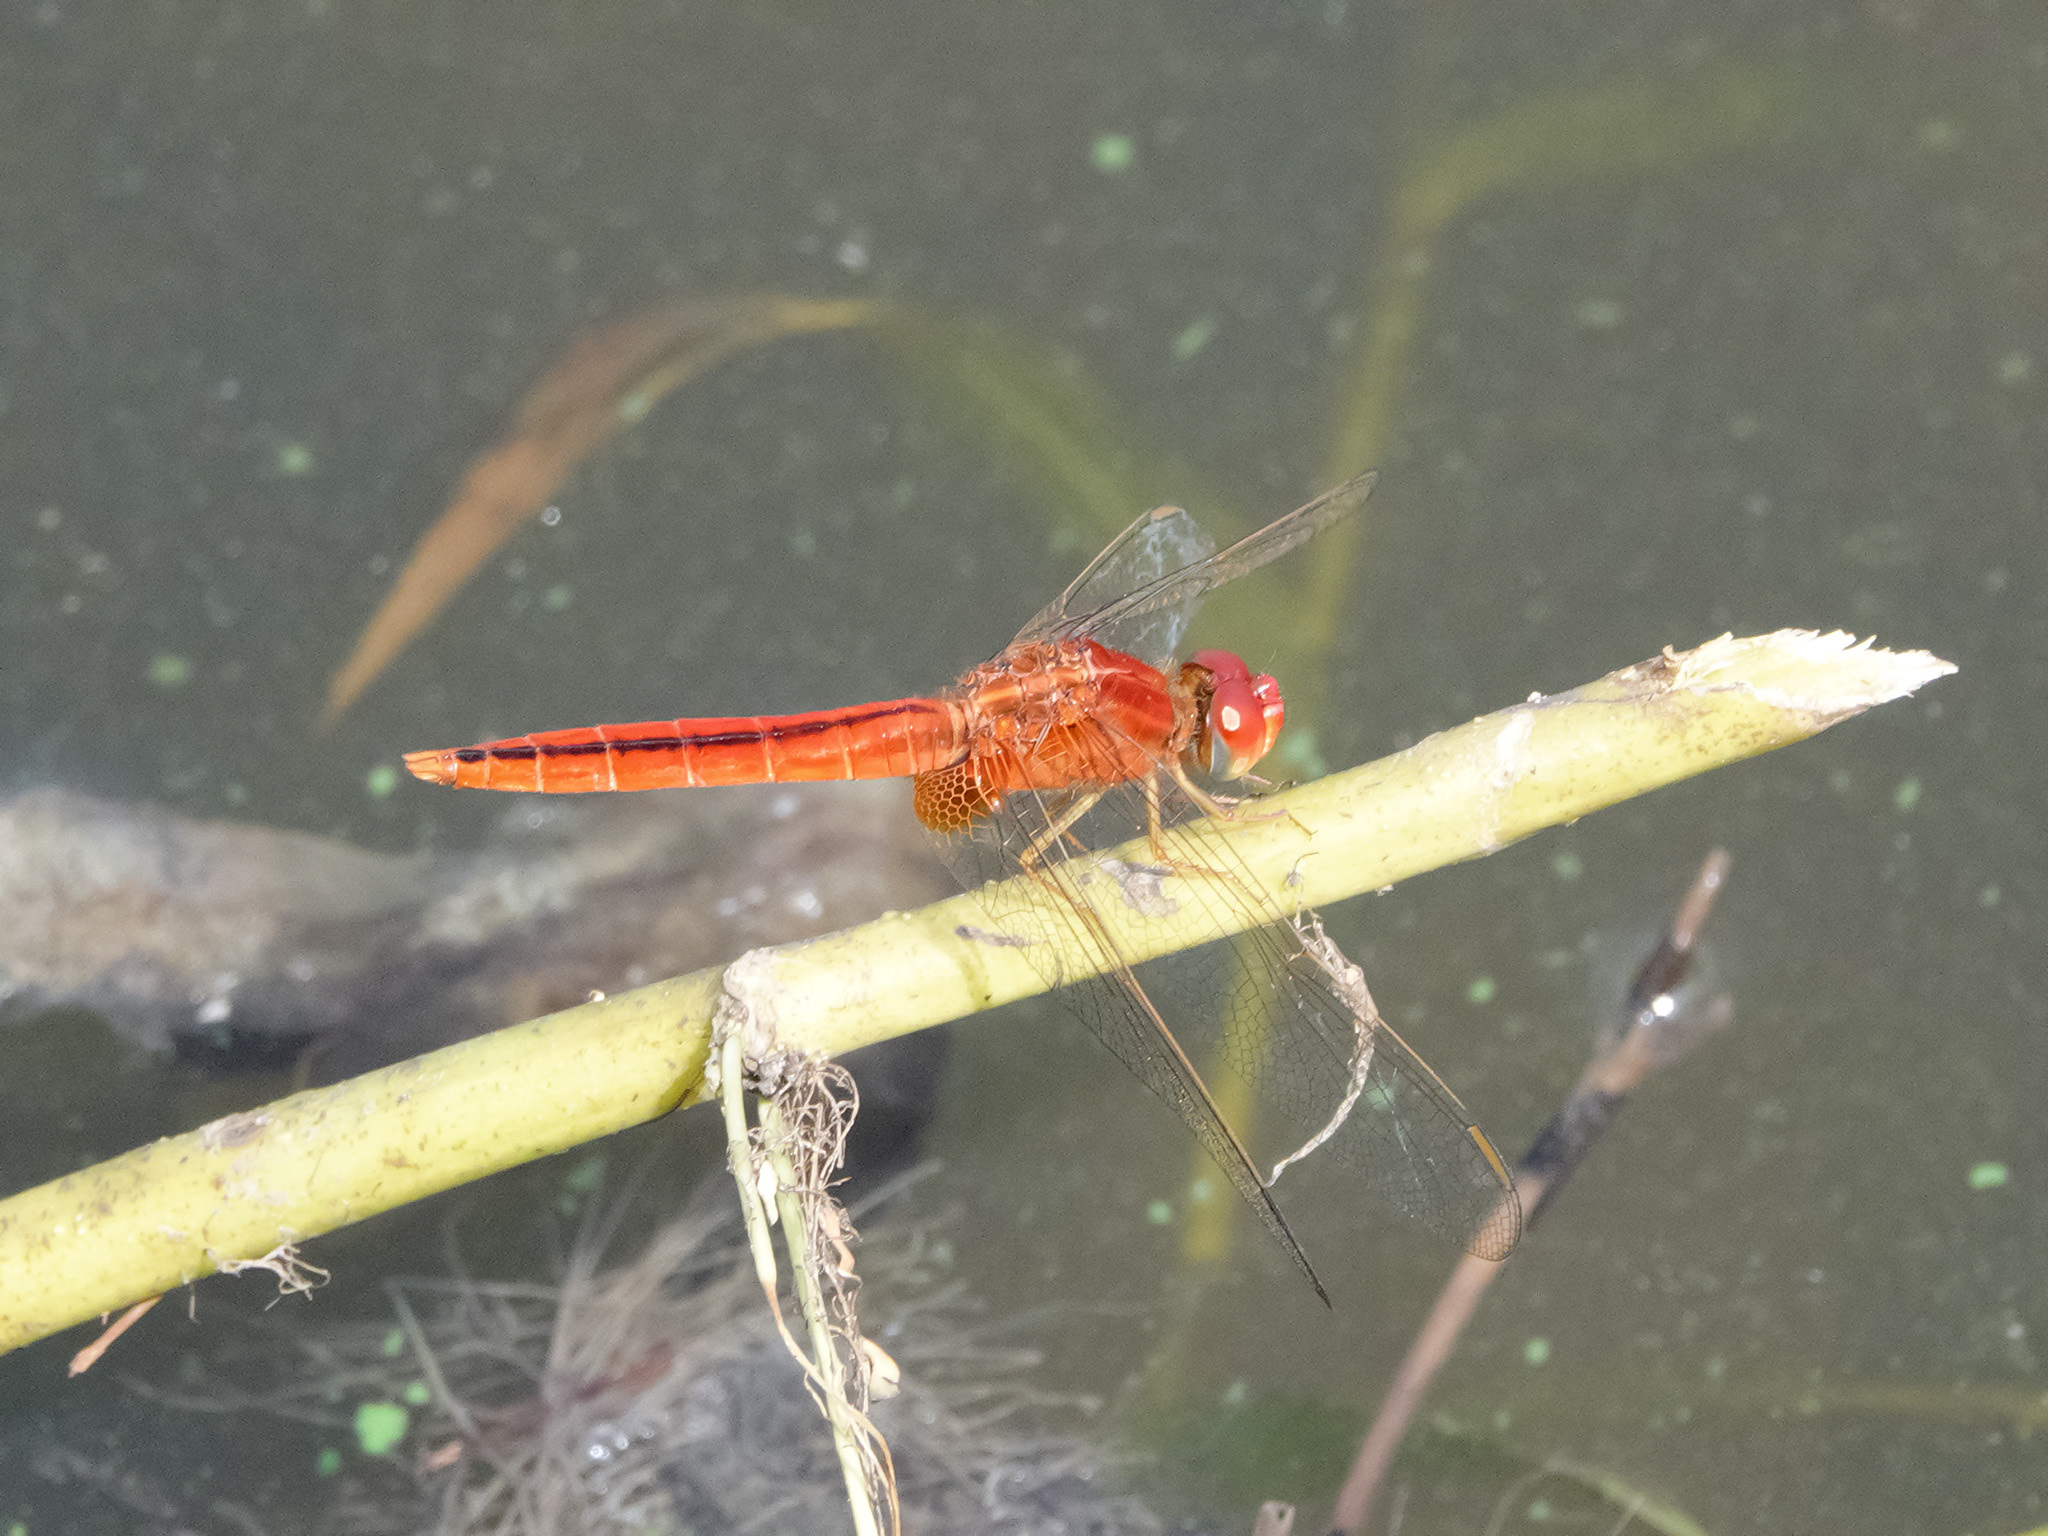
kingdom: Animalia
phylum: Arthropoda
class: Insecta
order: Odonata
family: Libellulidae
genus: Crocothemis
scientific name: Crocothemis servilia
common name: Scarlet skimmer
